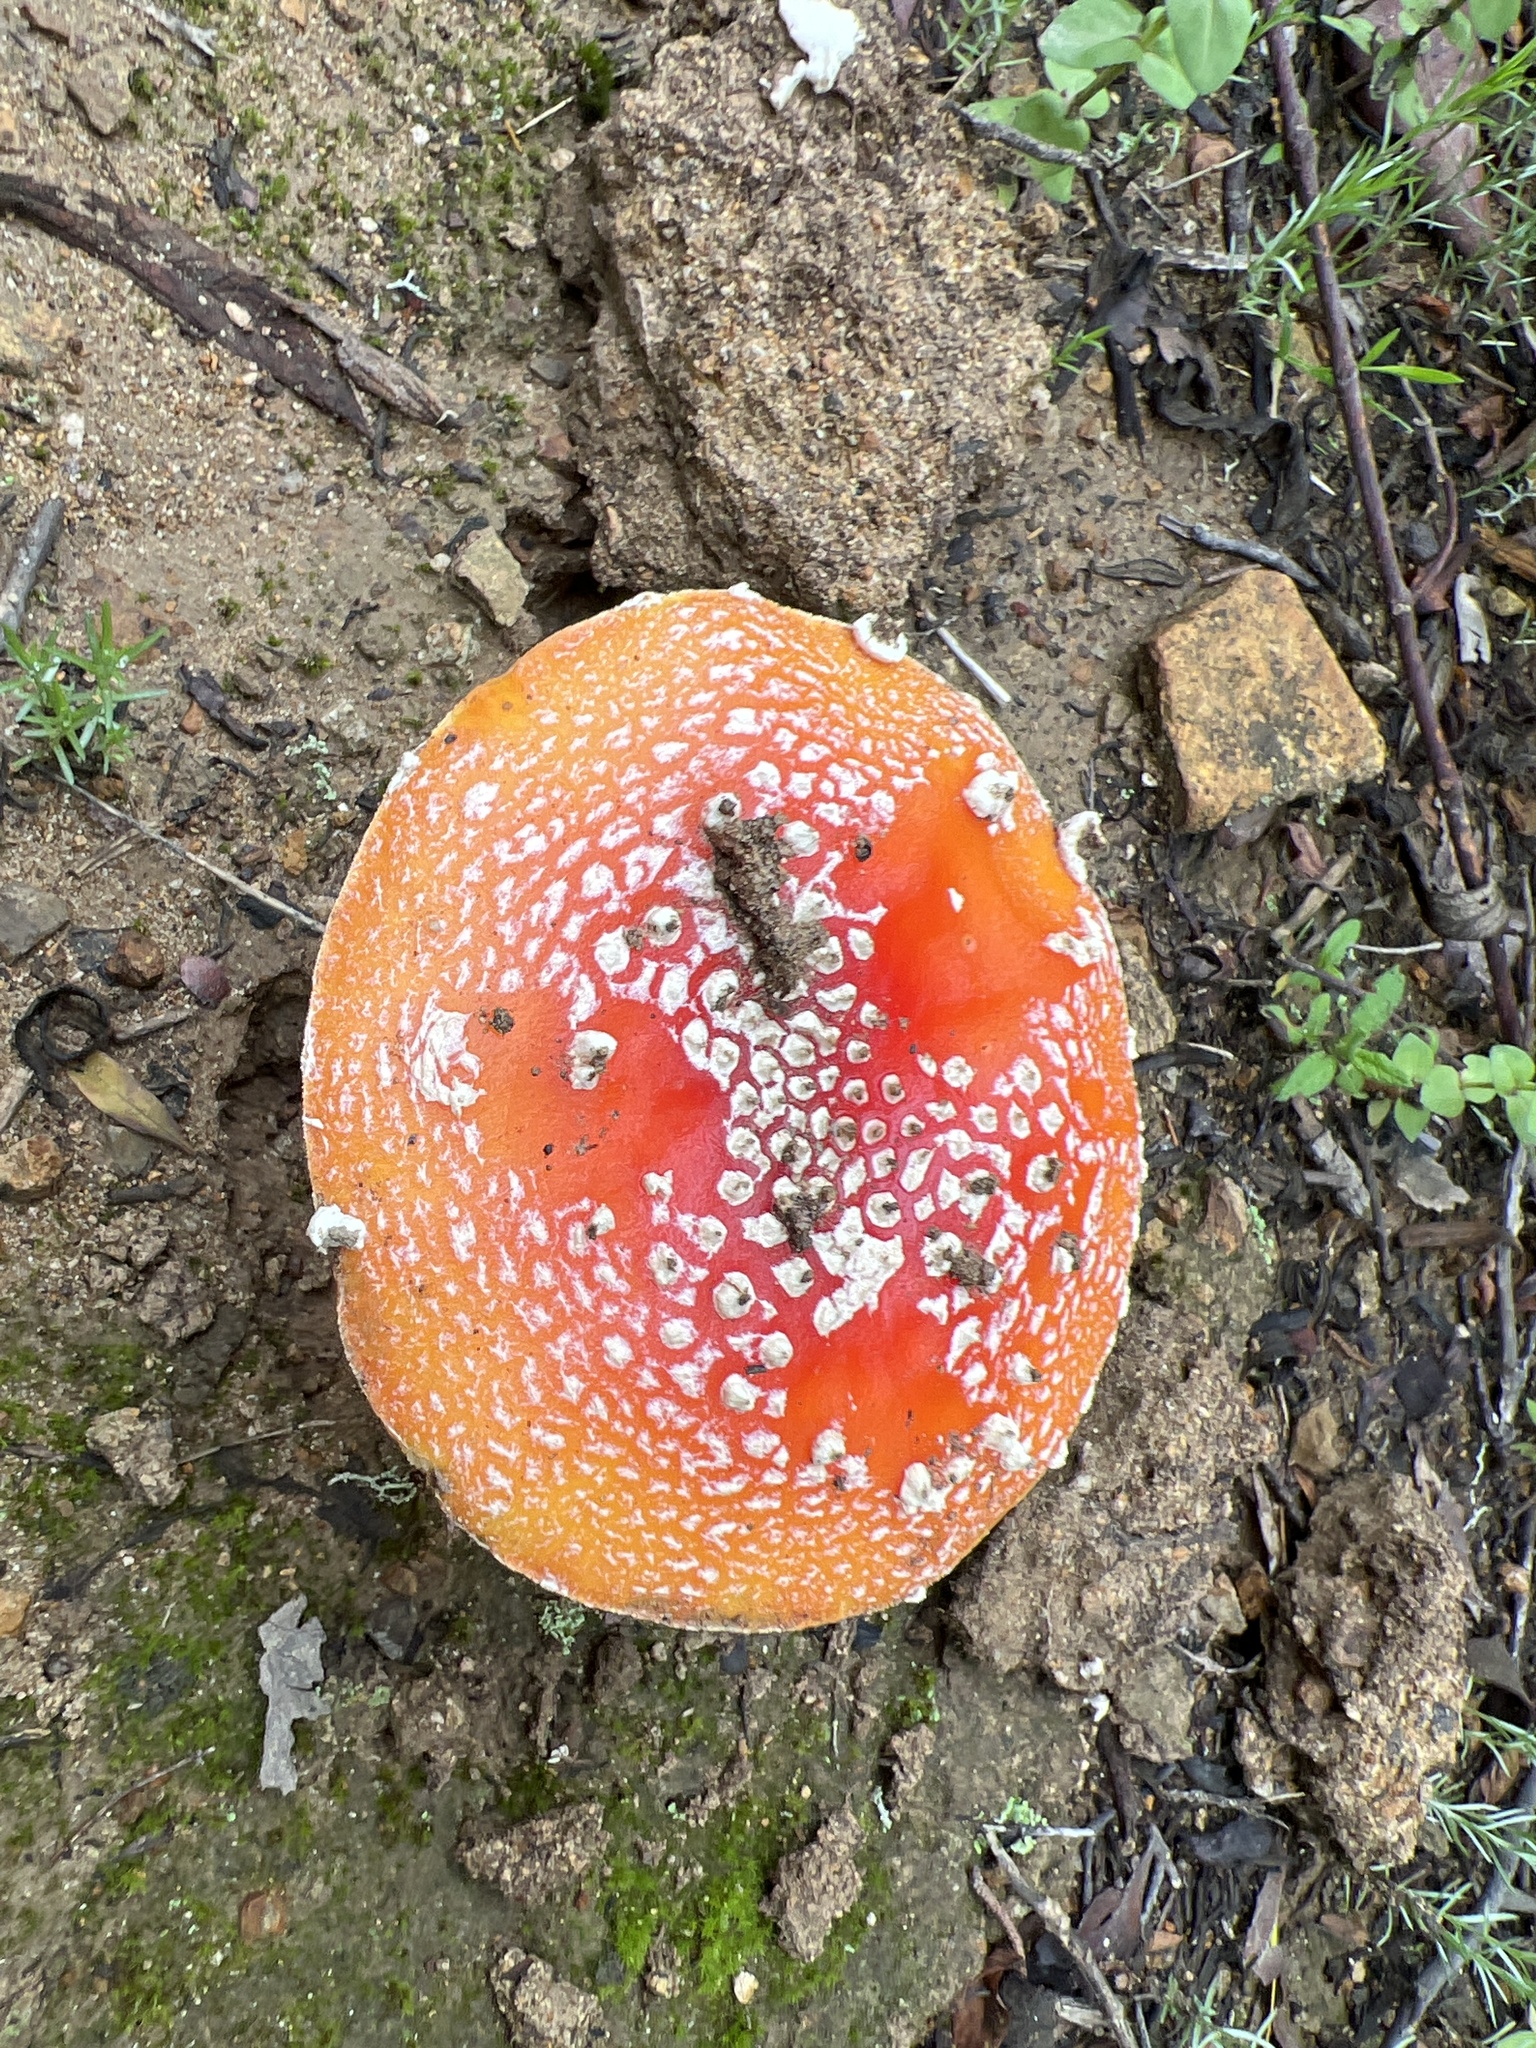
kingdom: Fungi
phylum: Basidiomycota
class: Agaricomycetes
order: Agaricales
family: Amanitaceae
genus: Amanita
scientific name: Amanita muscaria
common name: Fly agaric
